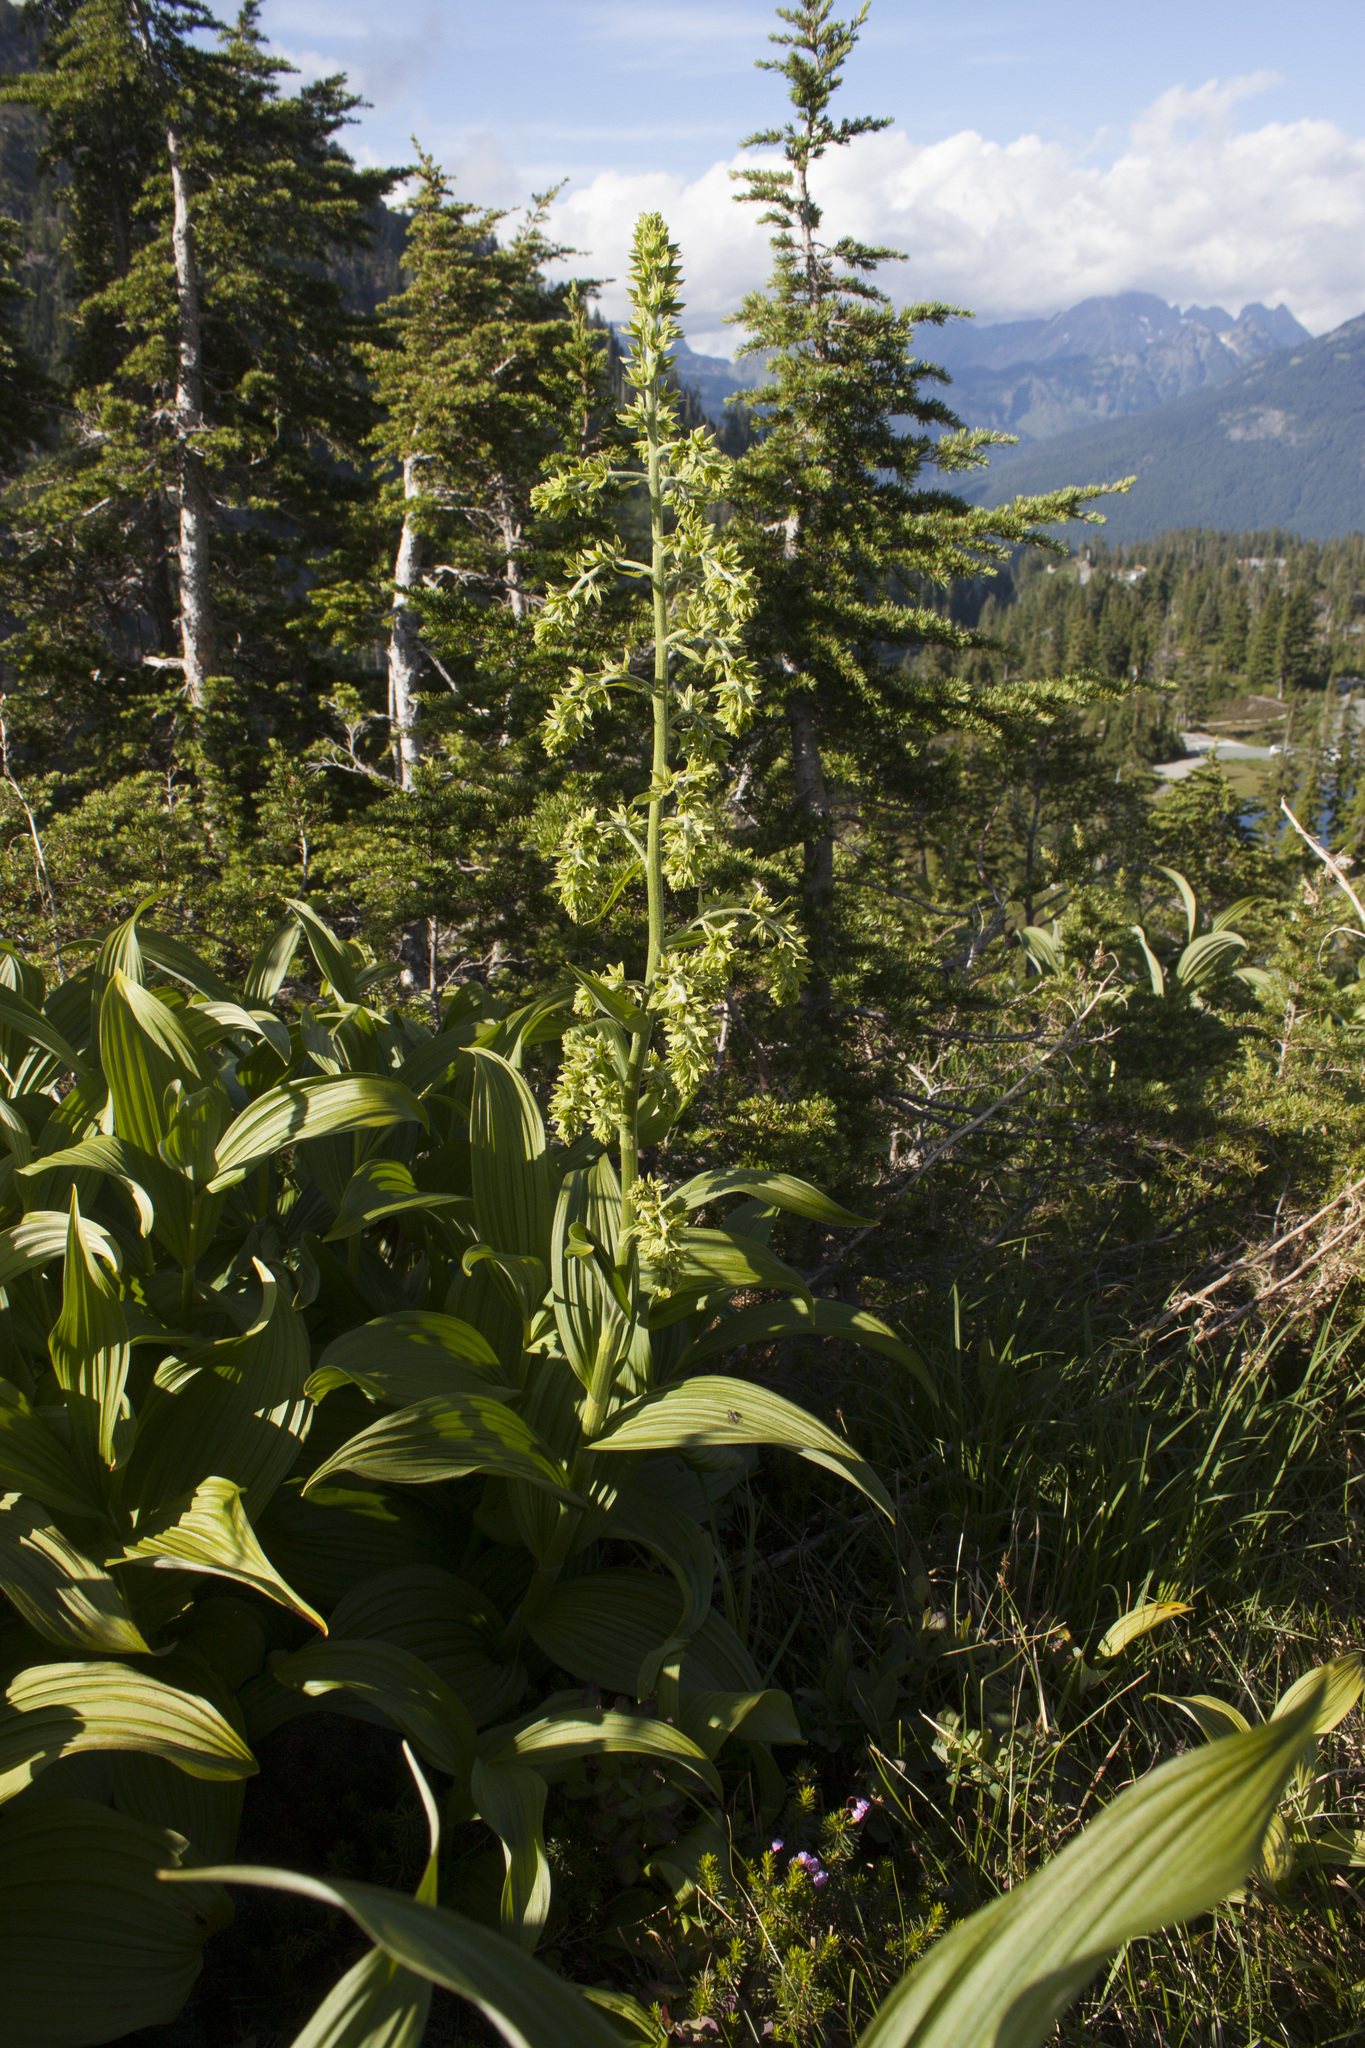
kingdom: Plantae
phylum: Tracheophyta
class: Liliopsida
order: Liliales
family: Melanthiaceae
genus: Veratrum
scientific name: Veratrum viride
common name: American false hellebore
